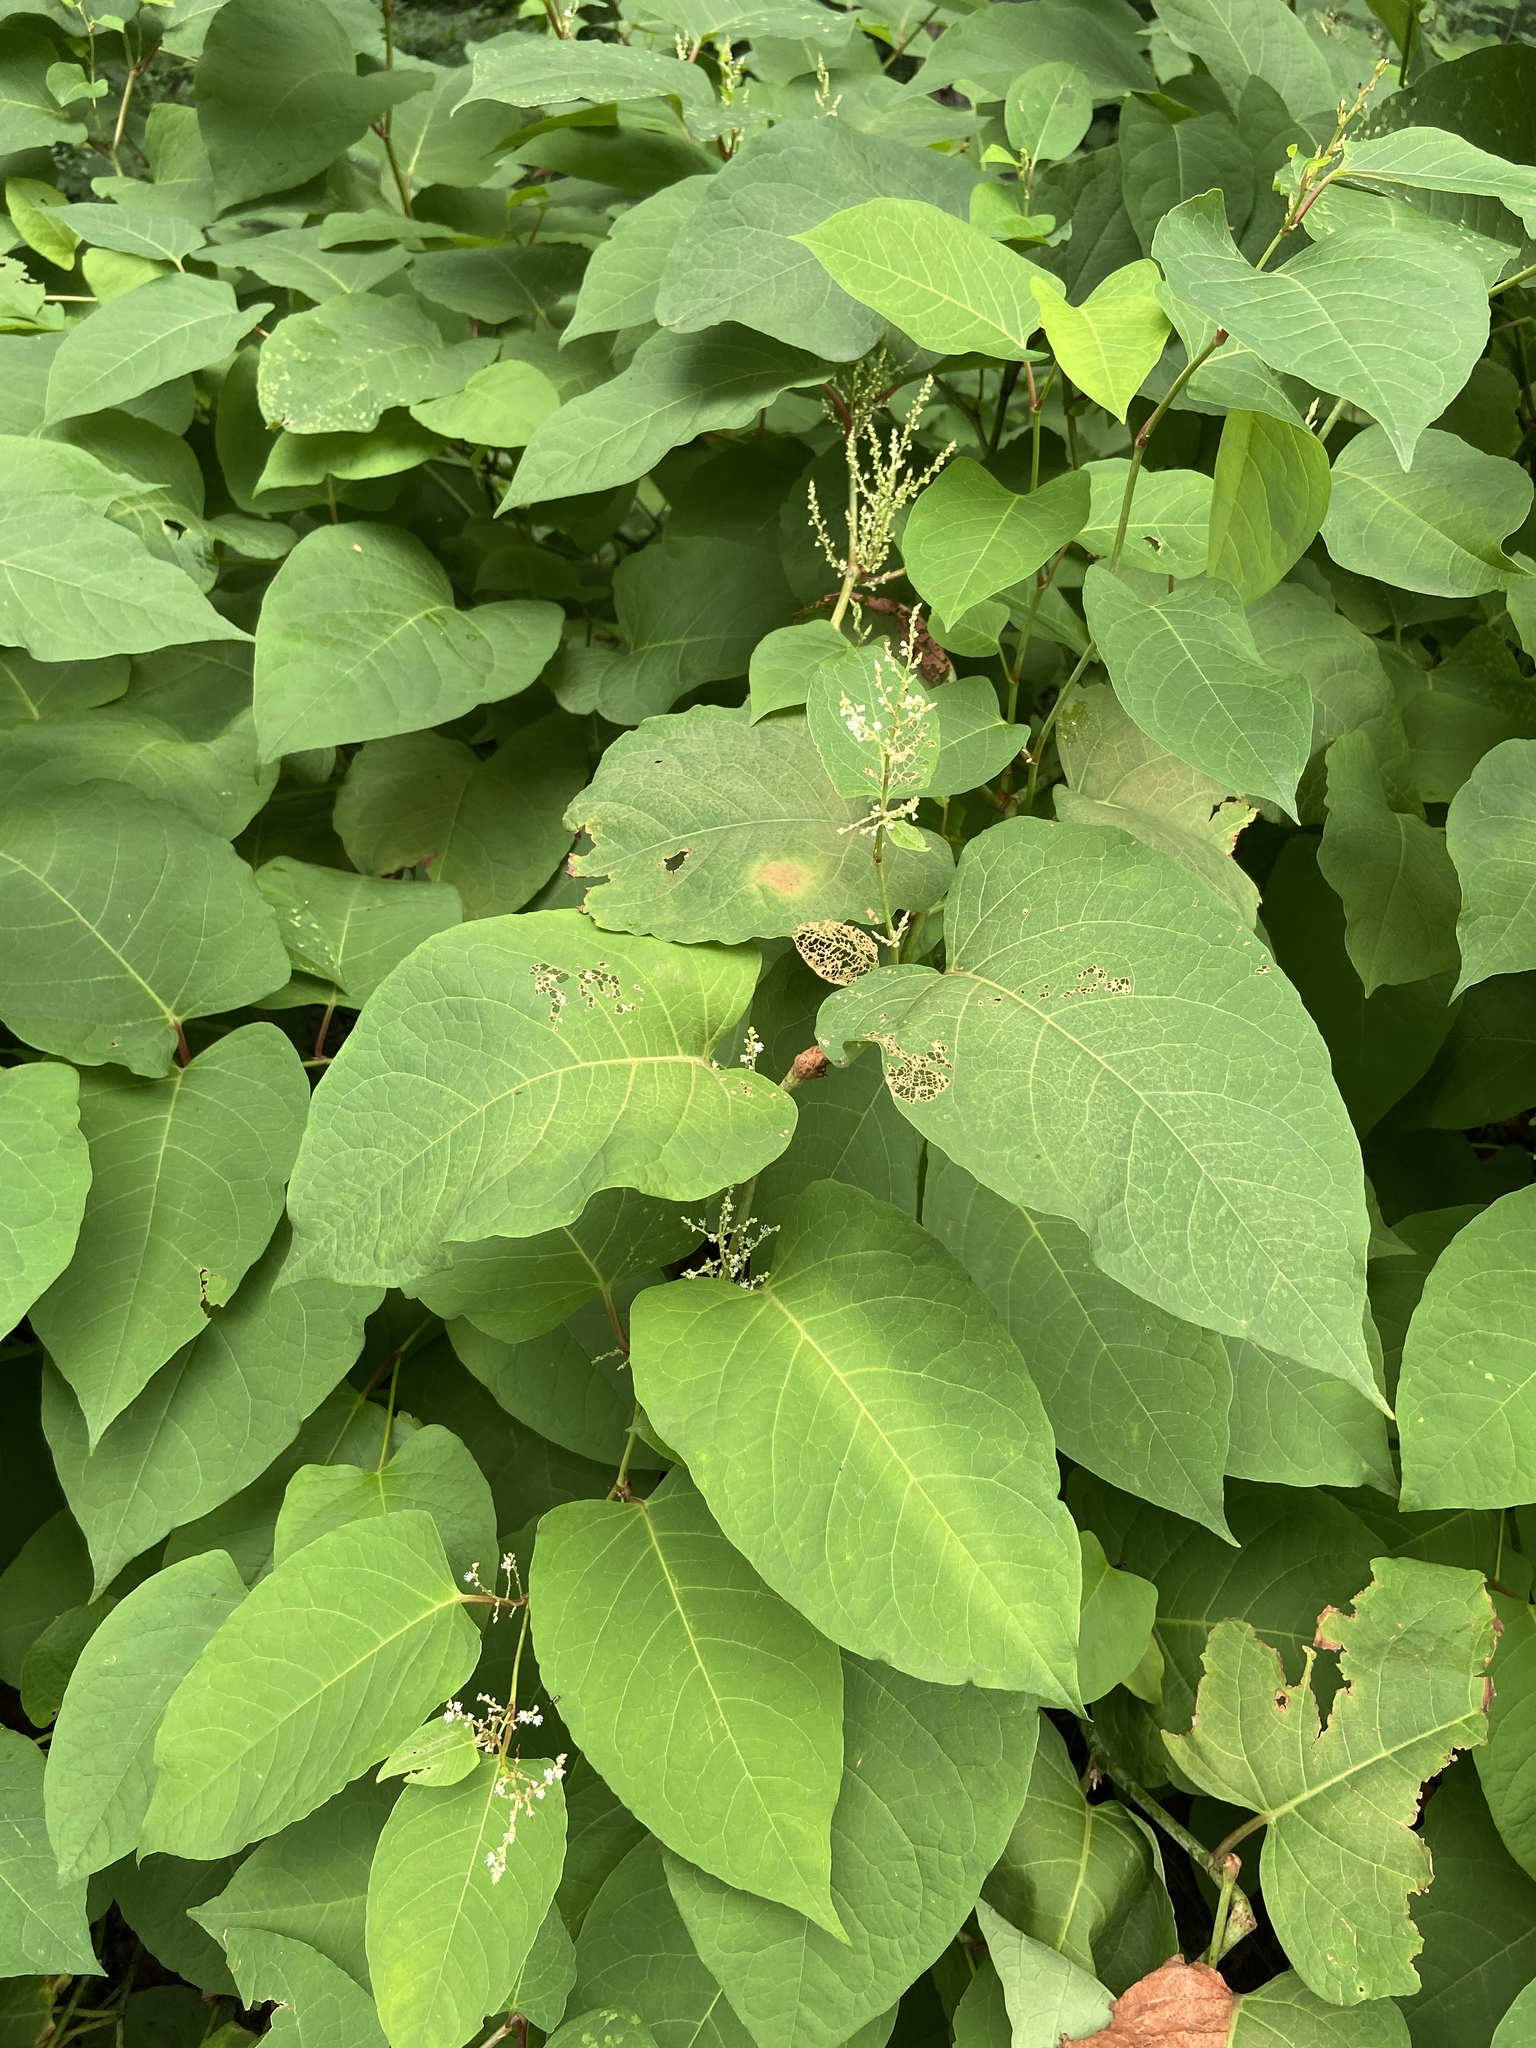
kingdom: Plantae
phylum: Tracheophyta
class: Magnoliopsida
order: Caryophyllales
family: Polygonaceae
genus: Reynoutria
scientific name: Reynoutria japonica
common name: Japanese knotweed
